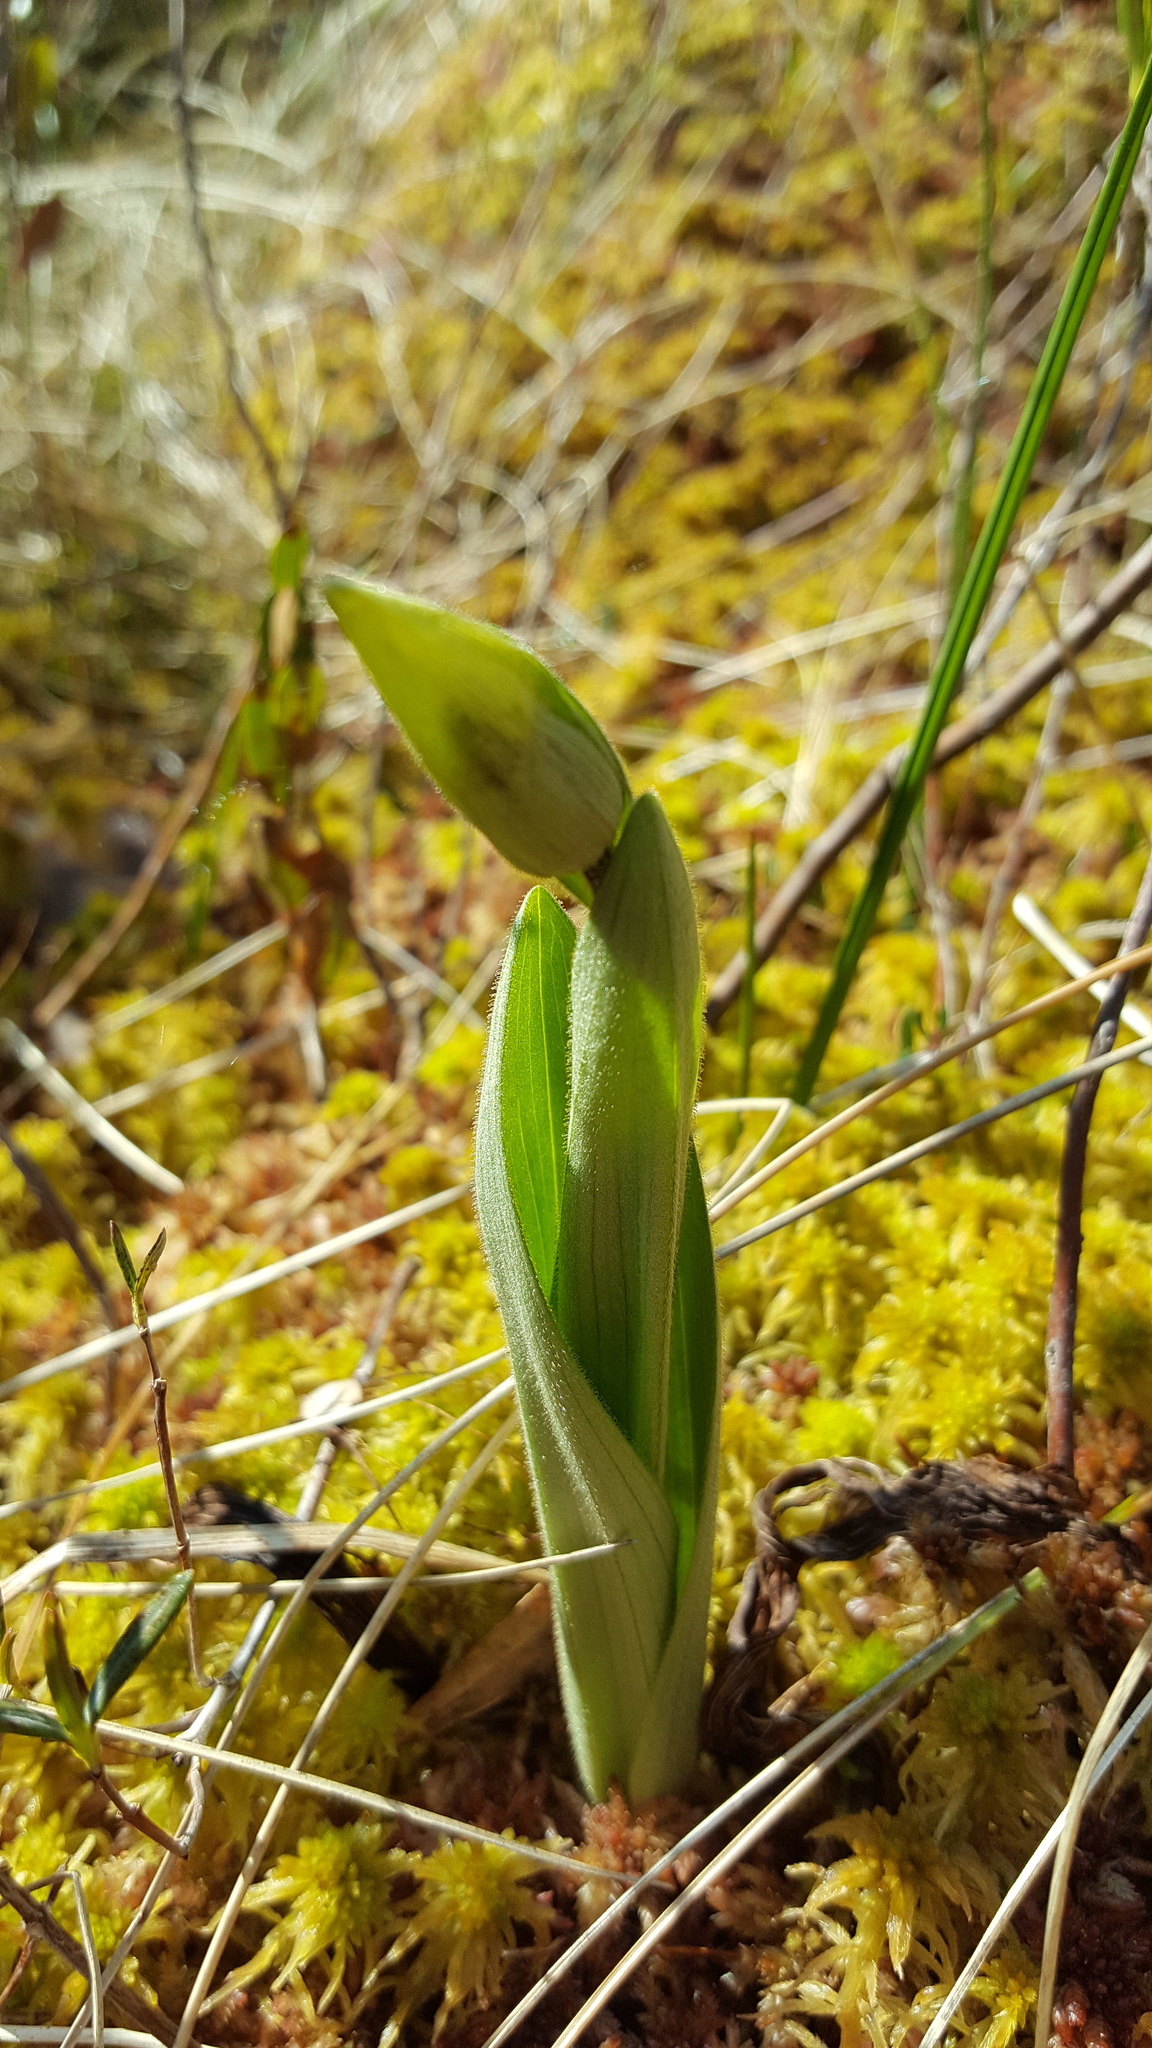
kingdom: Plantae
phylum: Tracheophyta
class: Liliopsida
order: Asparagales
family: Orchidaceae
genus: Cypripedium
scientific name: Cypripedium acaule
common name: Pink lady's-slipper
